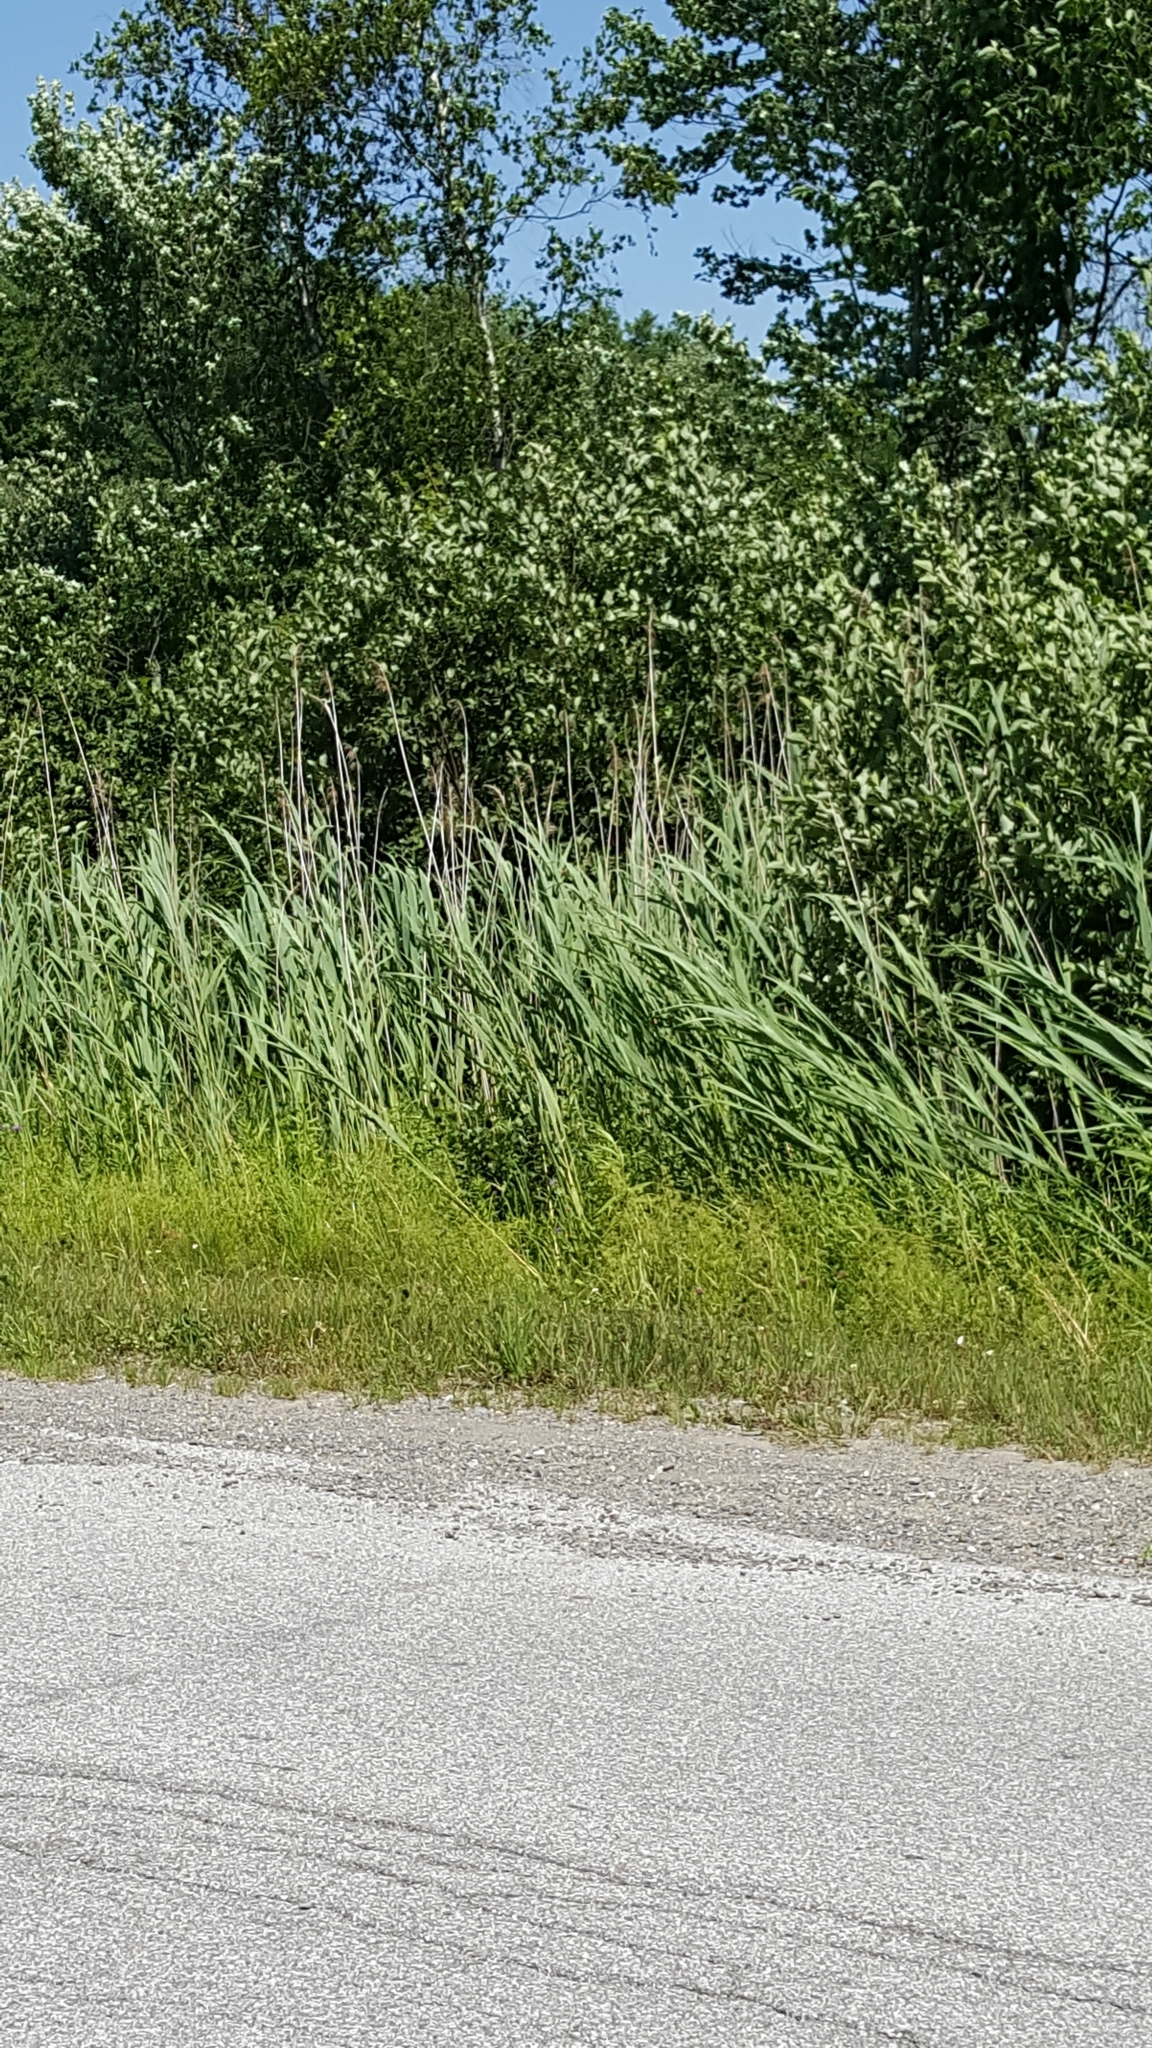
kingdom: Plantae
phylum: Tracheophyta
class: Liliopsida
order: Poales
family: Poaceae
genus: Phragmites
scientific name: Phragmites australis
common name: Common reed
